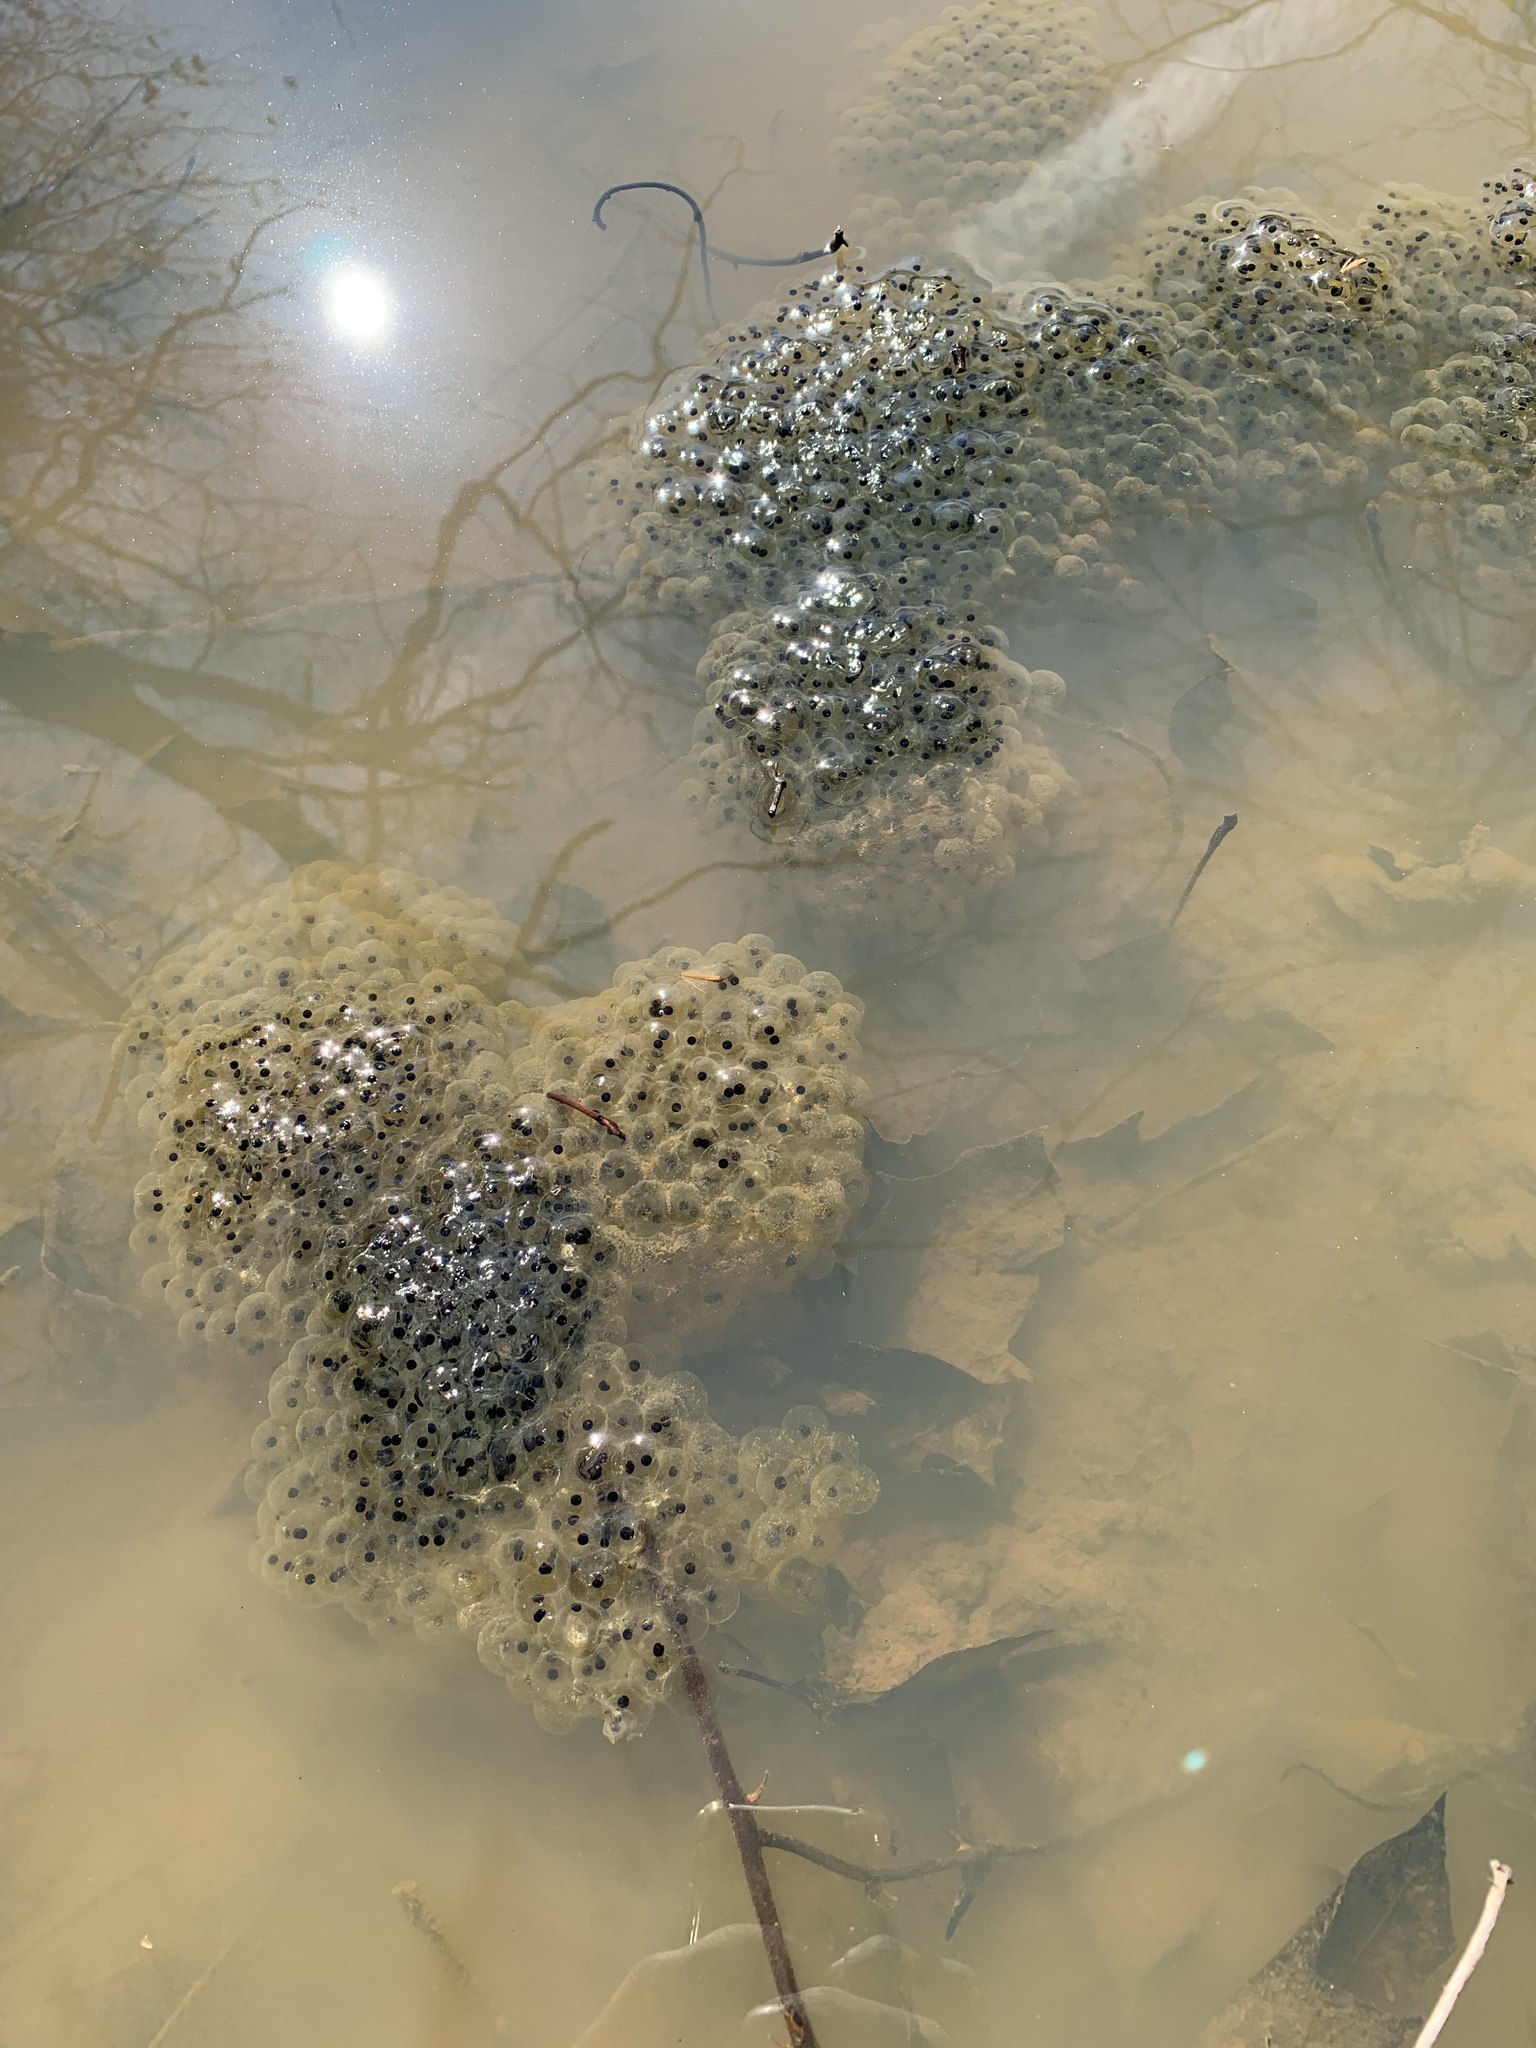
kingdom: Animalia
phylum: Chordata
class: Amphibia
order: Anura
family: Ranidae
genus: Lithobates
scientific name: Lithobates sylvaticus
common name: Wood frog
